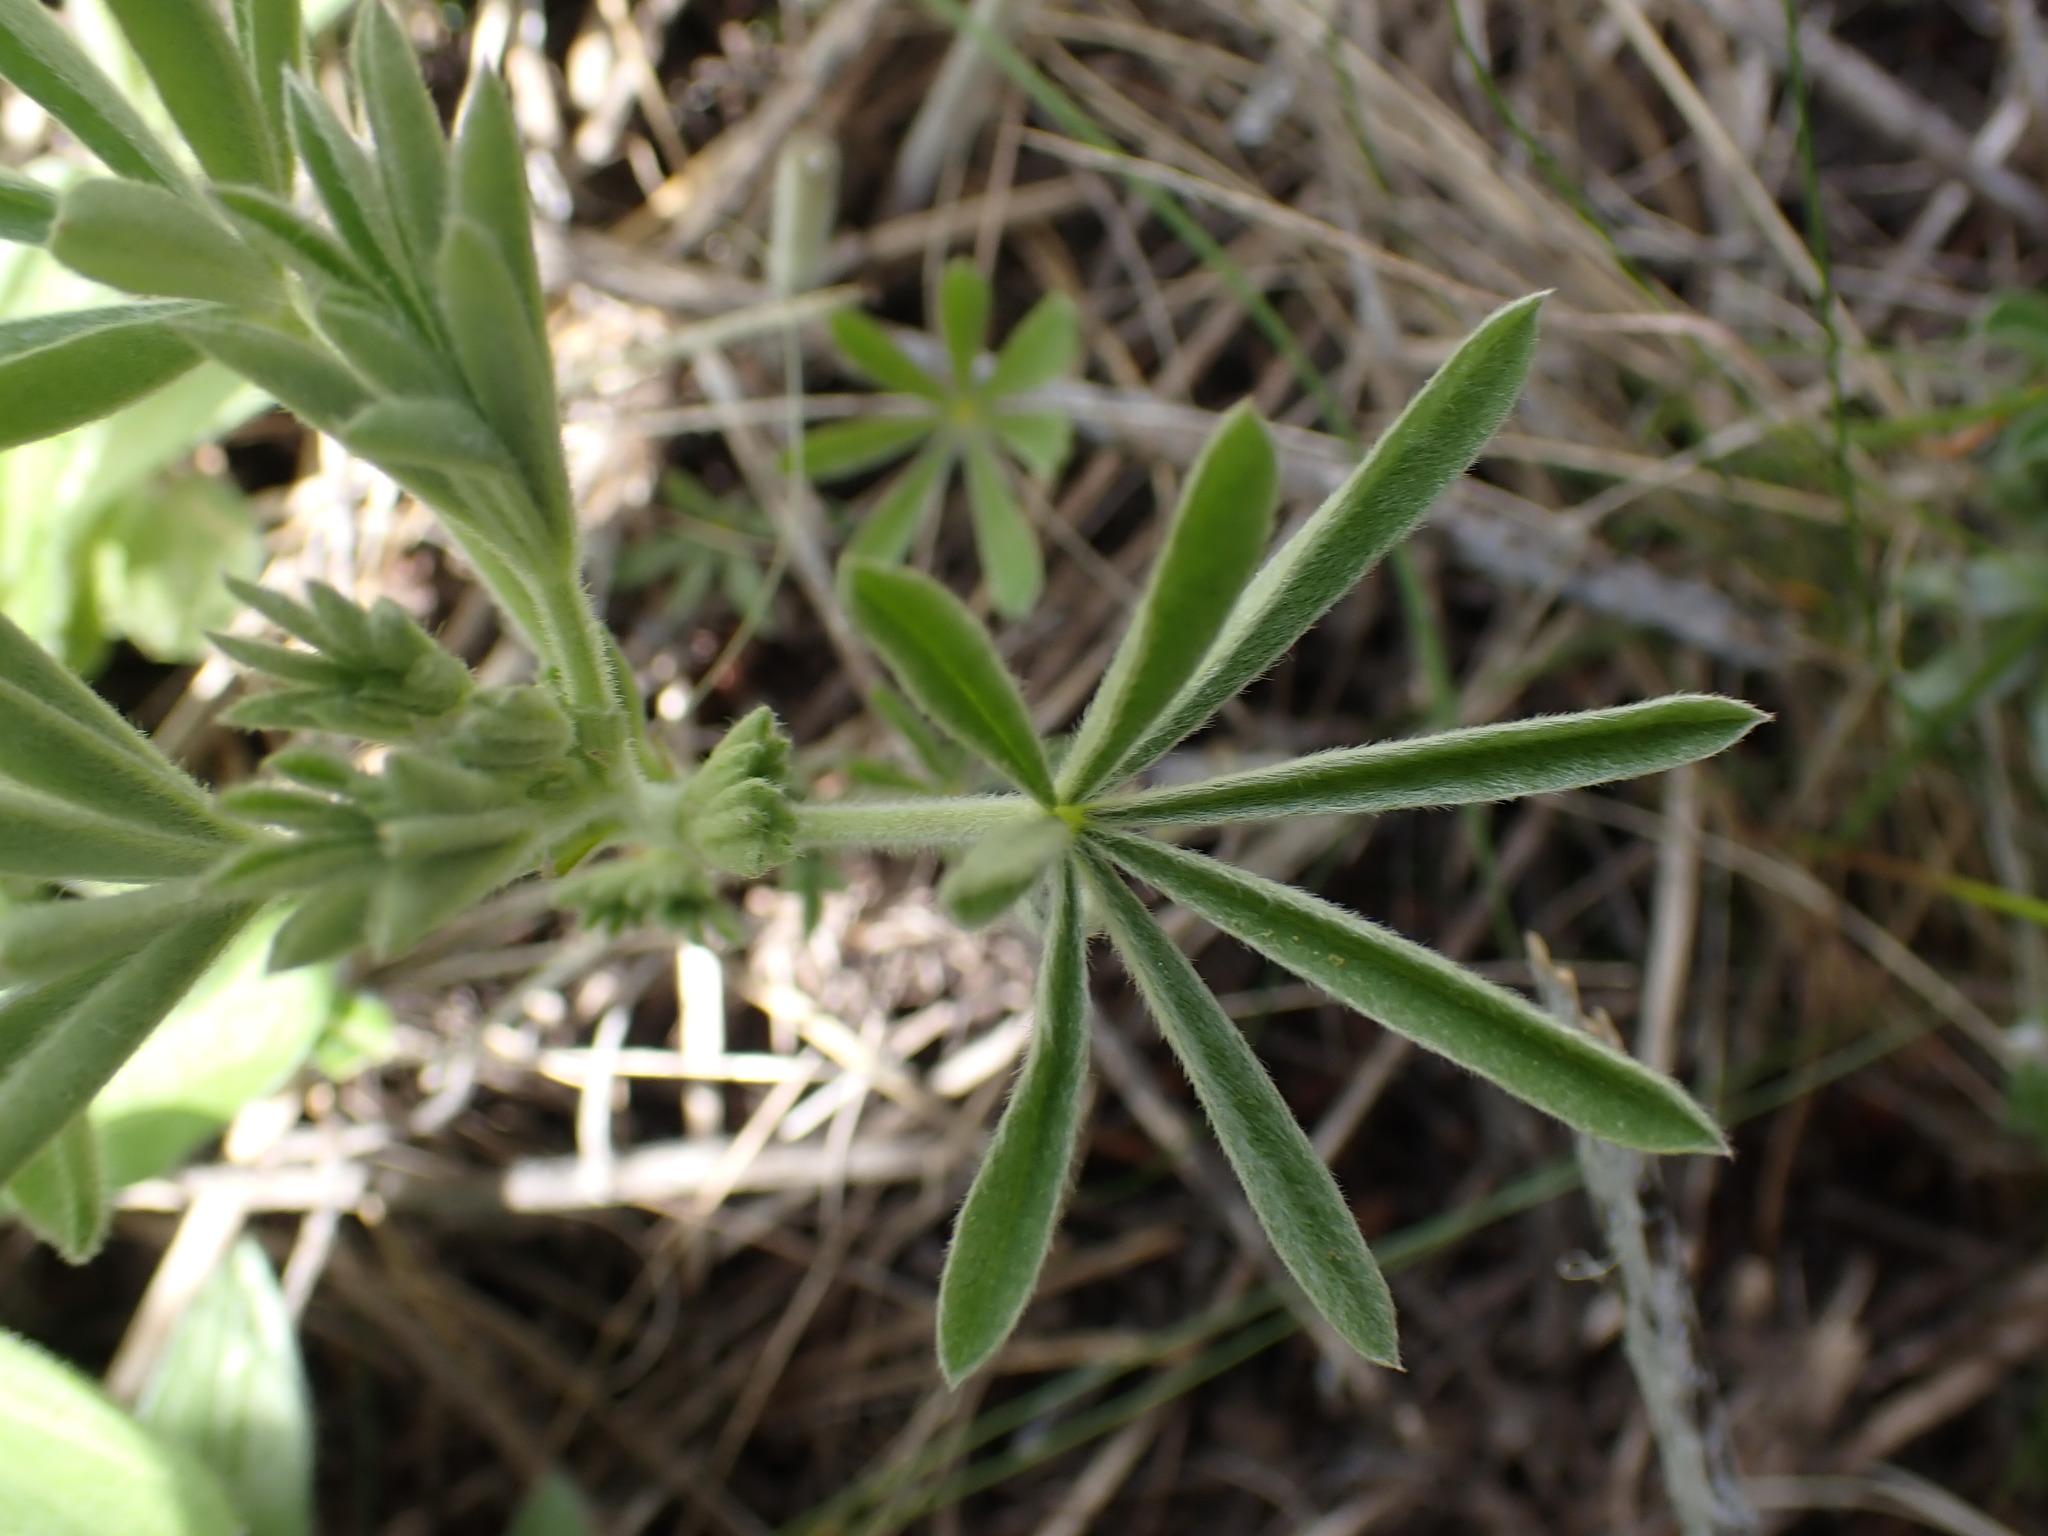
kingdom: Plantae
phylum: Tracheophyta
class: Magnoliopsida
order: Fabales
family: Fabaceae
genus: Lupinus
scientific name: Lupinus sericeus
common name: Silky lupine
